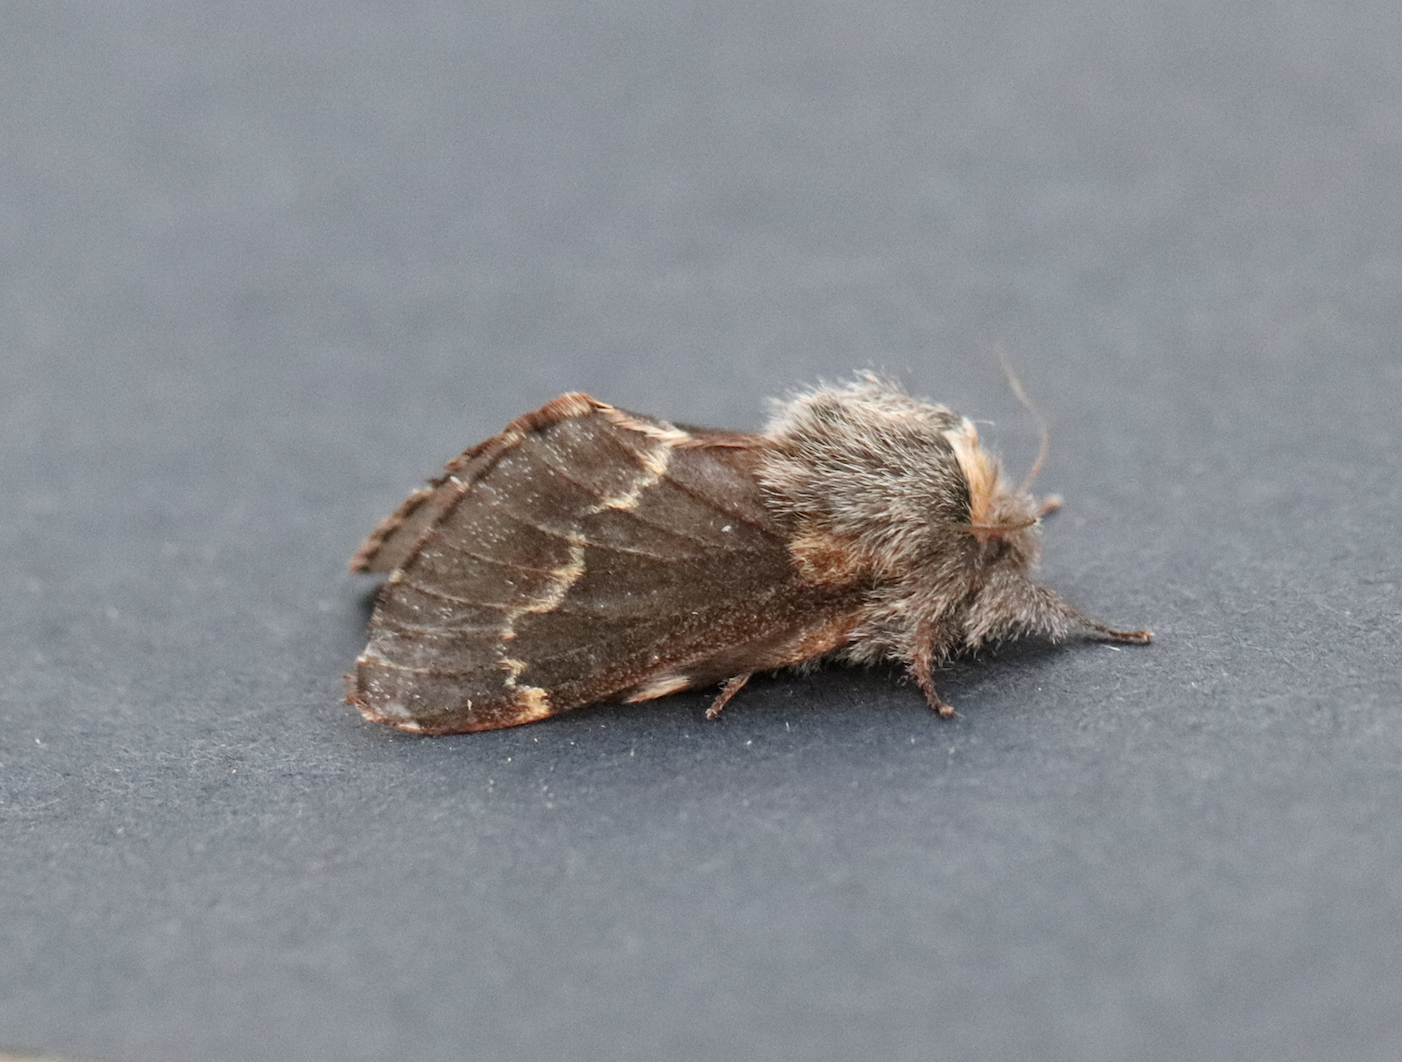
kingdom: Animalia
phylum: Arthropoda
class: Insecta
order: Lepidoptera
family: Lasiocampidae
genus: Poecilocampa
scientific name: Poecilocampa populi
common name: December moth
